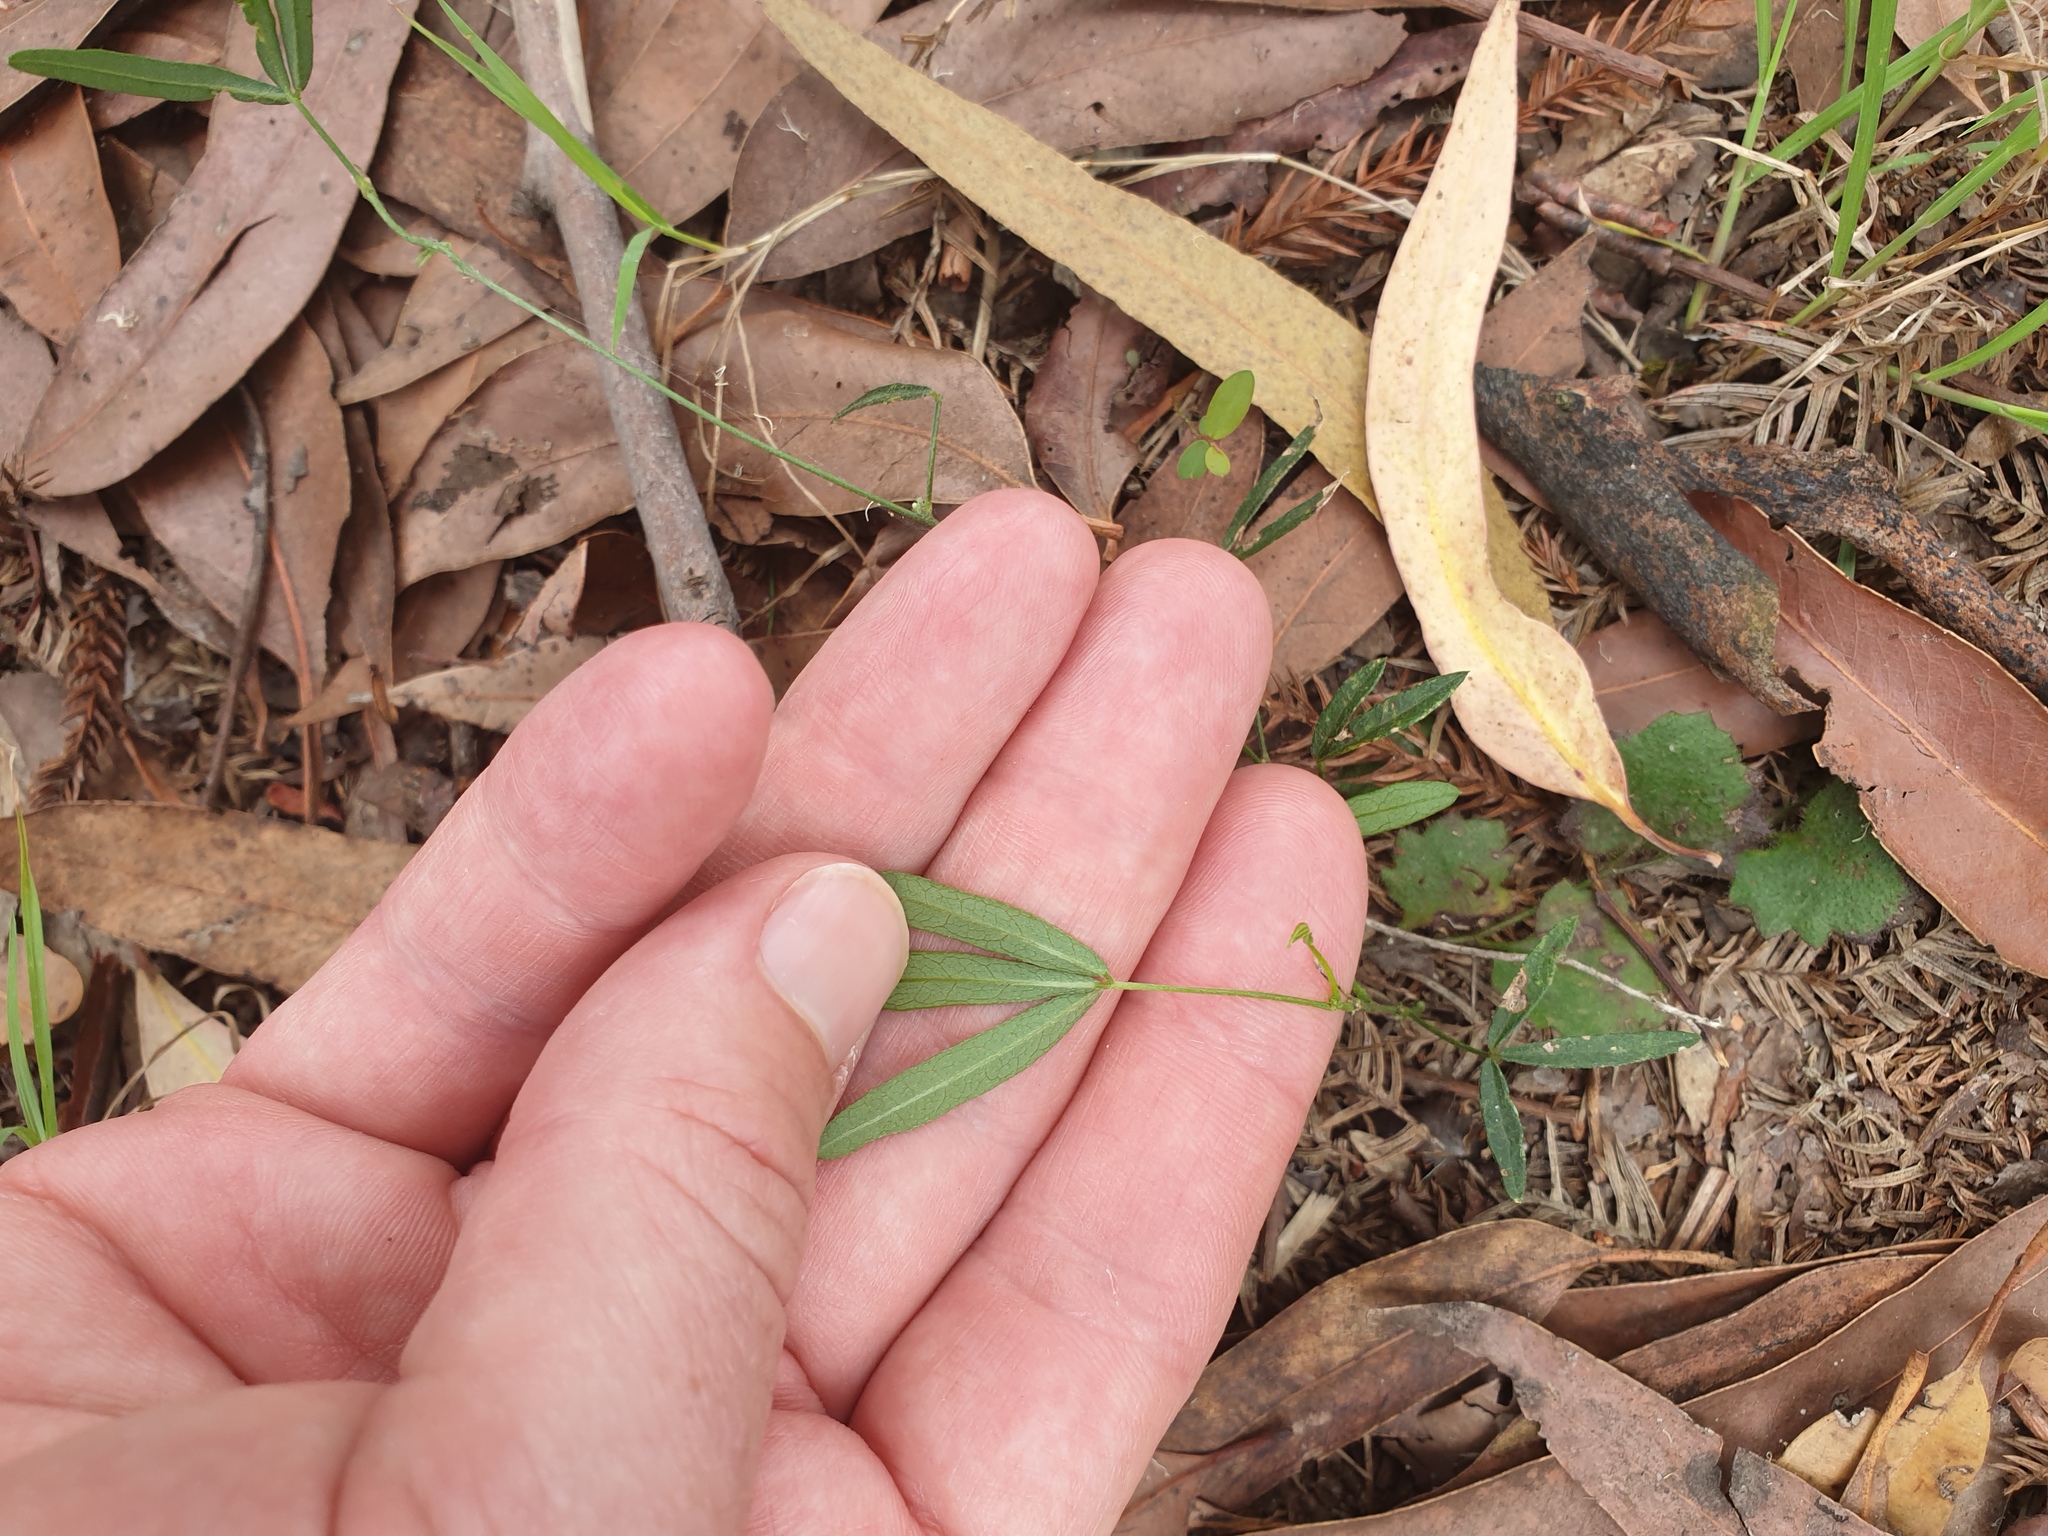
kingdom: Plantae
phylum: Tracheophyta
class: Magnoliopsida
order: Fabales
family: Fabaceae
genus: Glycine
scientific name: Glycine clandestina
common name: Twining glycine
